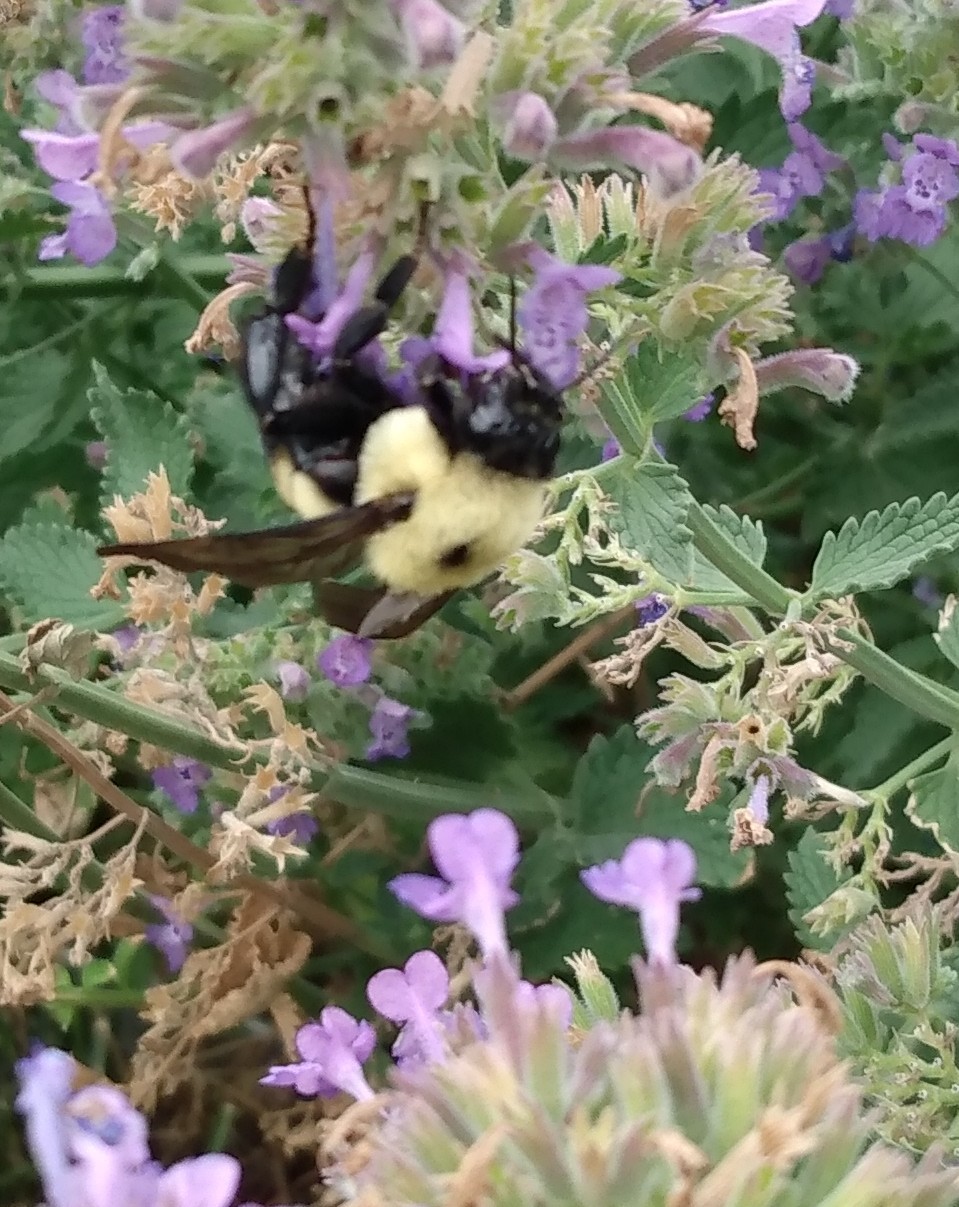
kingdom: Animalia
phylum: Arthropoda
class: Insecta
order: Hymenoptera
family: Apidae
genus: Bombus
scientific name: Bombus griseocollis
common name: Brown-belted bumble bee
